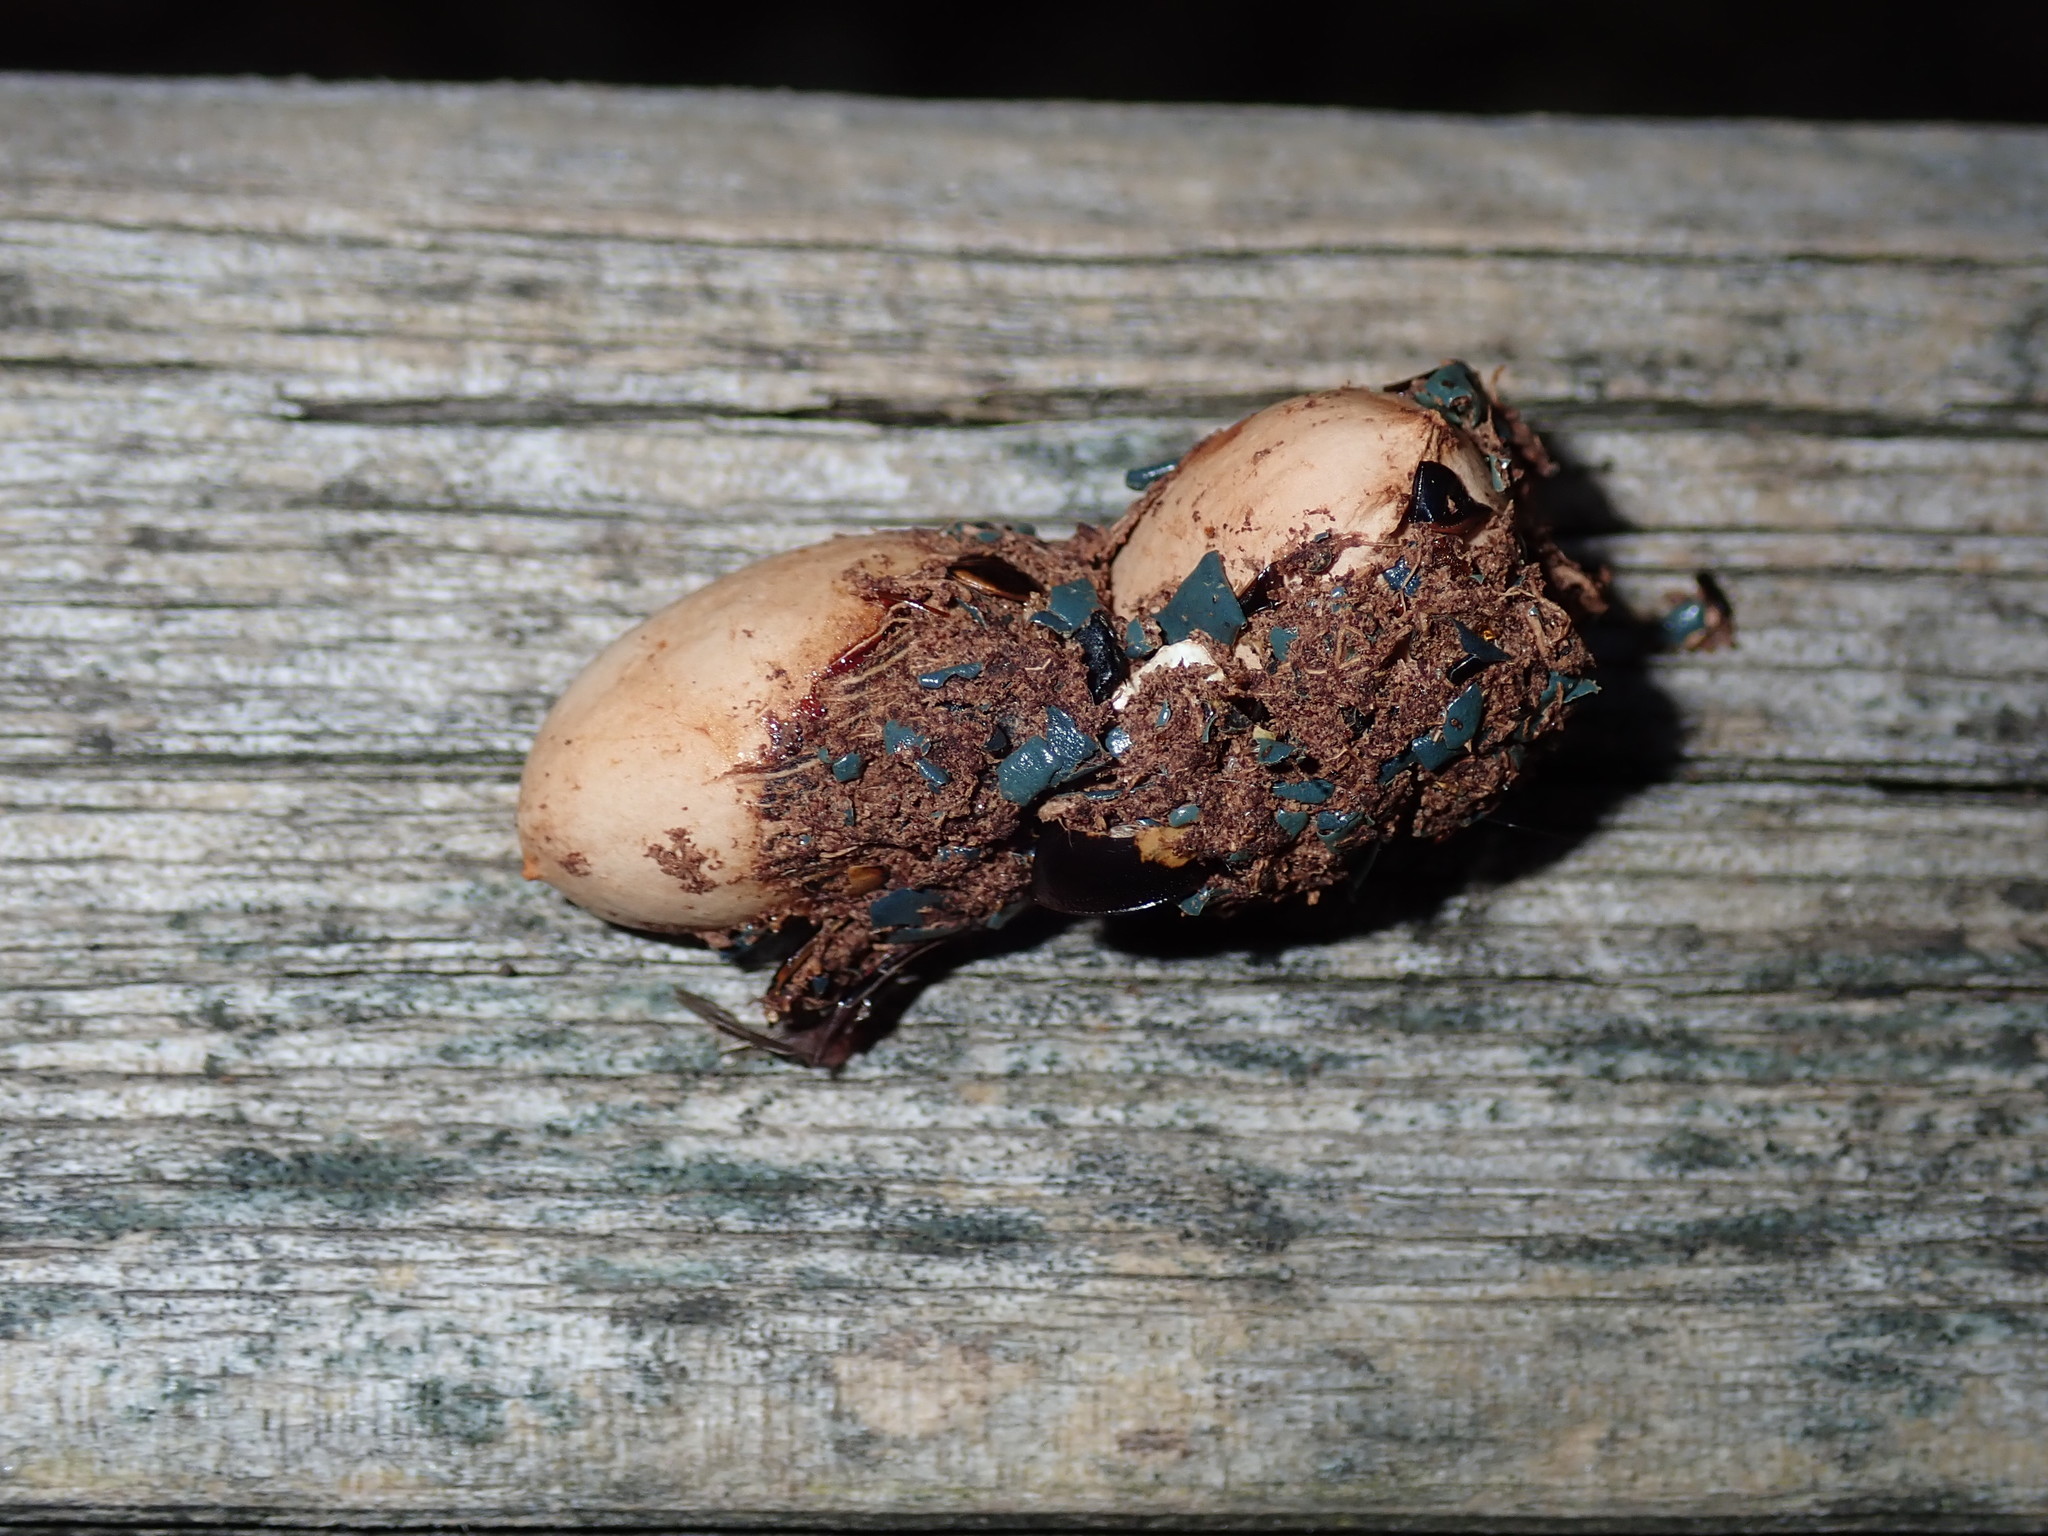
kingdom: Animalia
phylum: Chordata
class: Aves
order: Passeriformes
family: Cracticidae
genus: Strepera
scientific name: Strepera graculina
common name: Pied currawong
